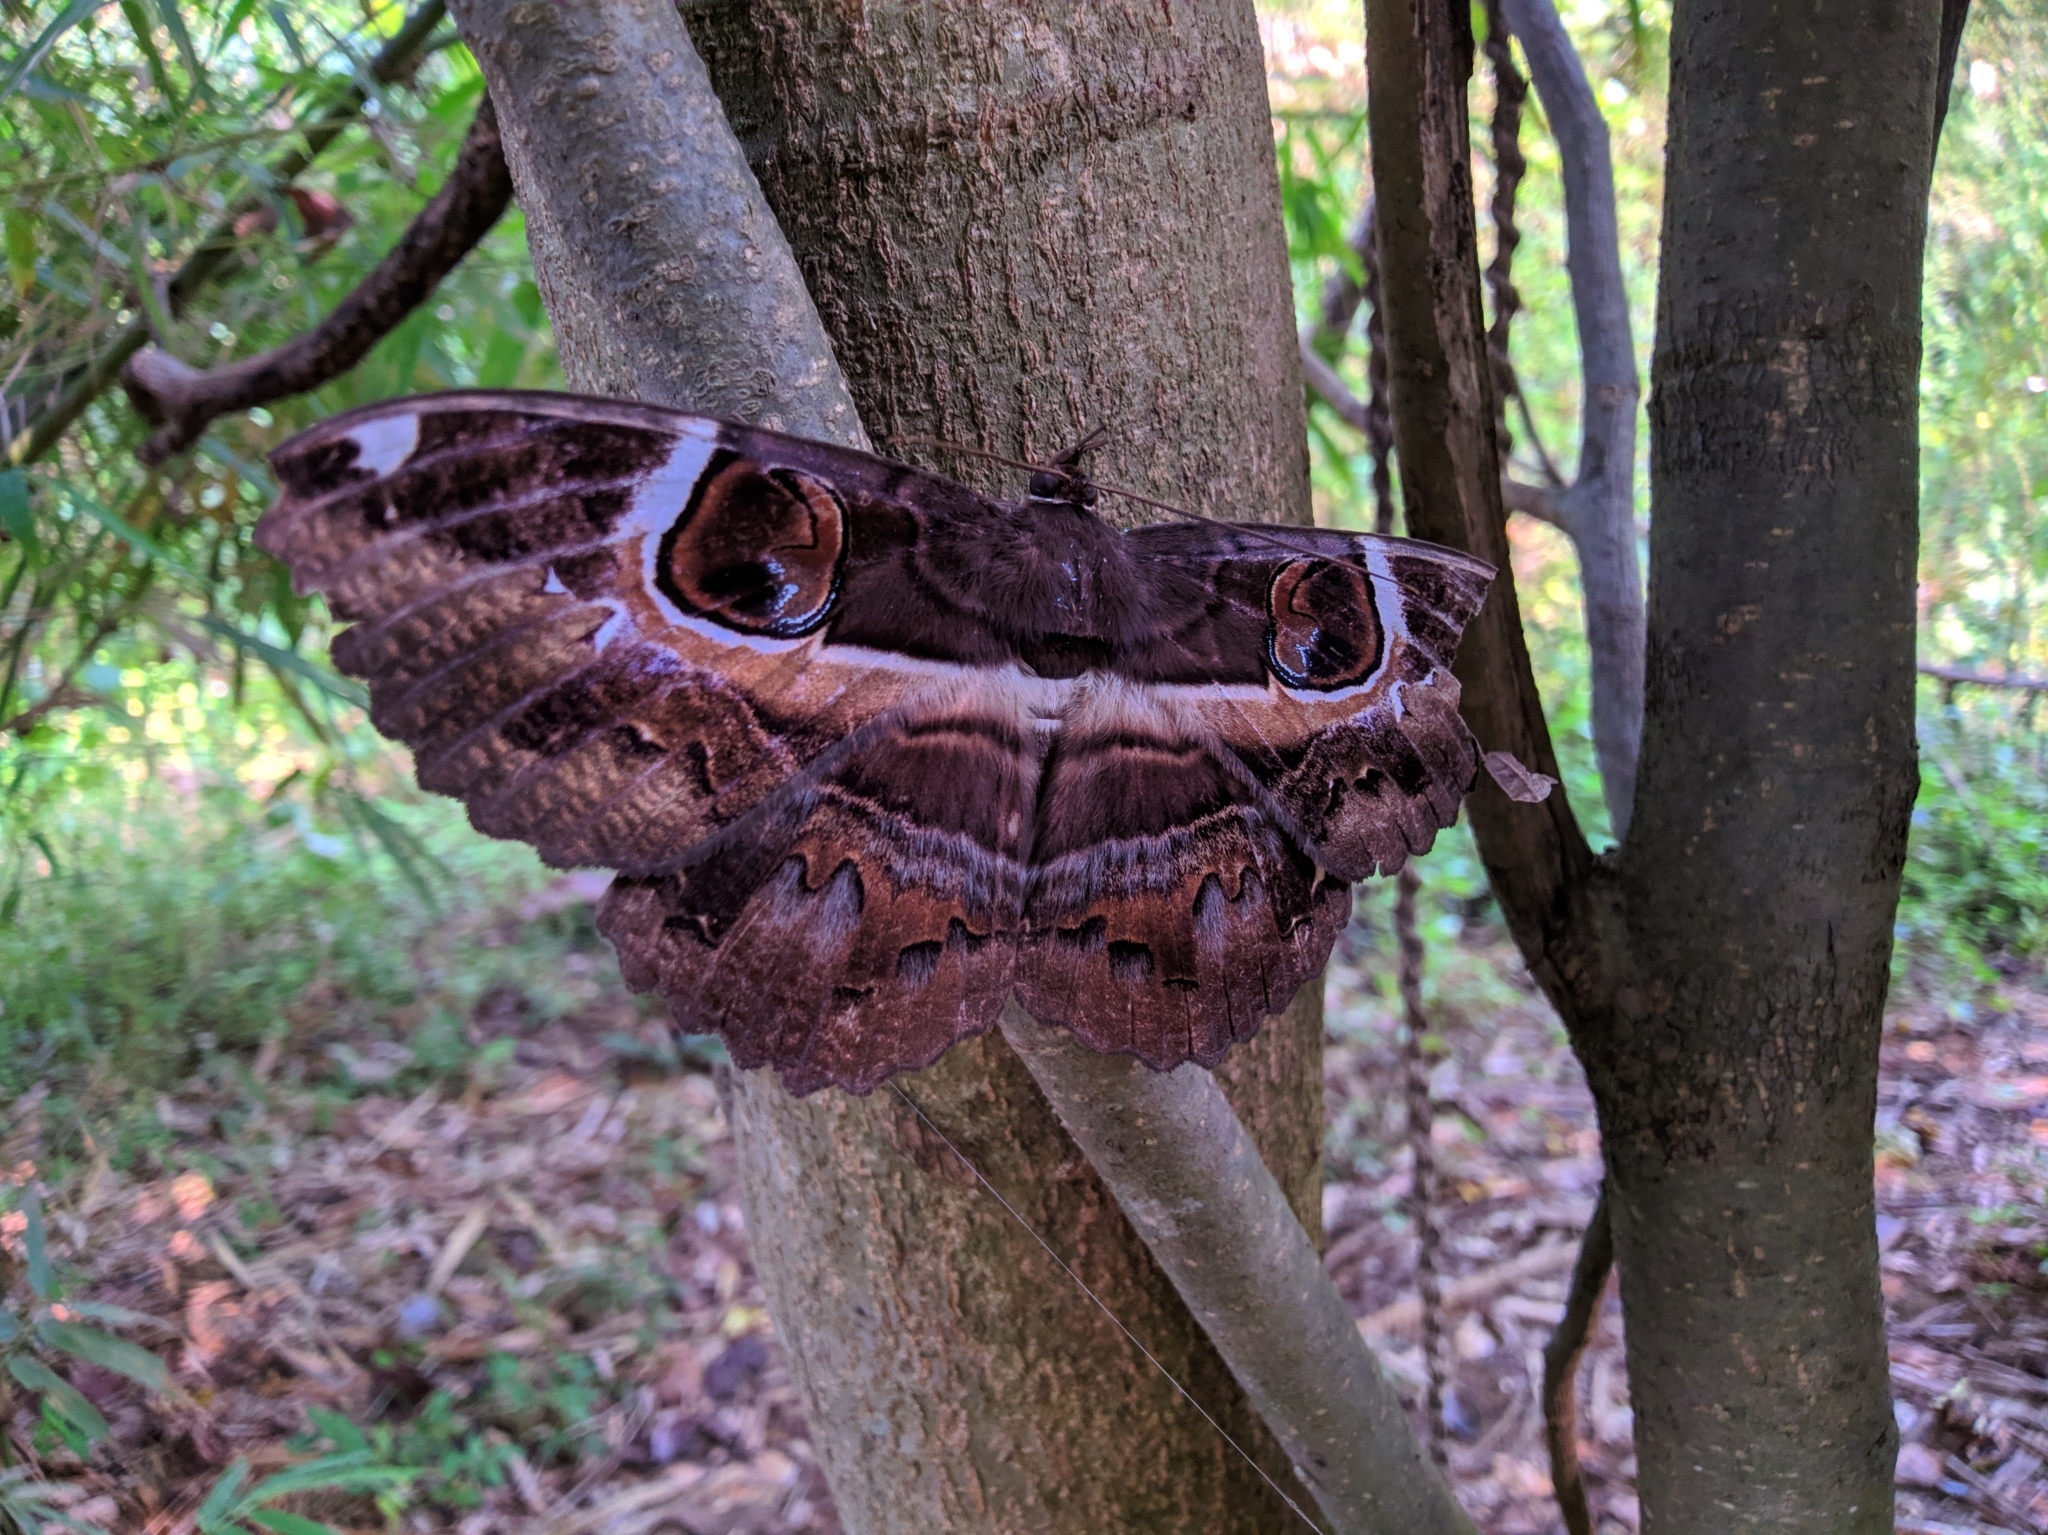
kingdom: Animalia
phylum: Arthropoda
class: Insecta
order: Lepidoptera
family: Erebidae
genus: Erebus
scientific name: Erebus ephesperis
